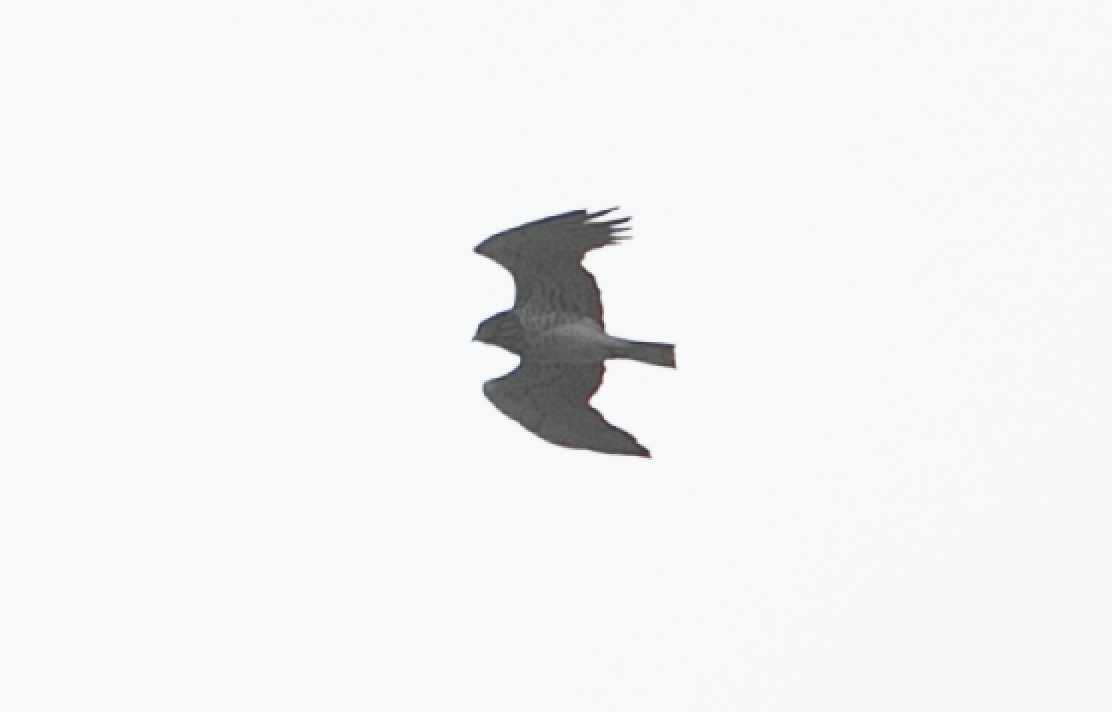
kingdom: Animalia
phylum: Chordata
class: Aves
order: Accipitriformes
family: Accipitridae
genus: Circaetus
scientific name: Circaetus gallicus
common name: Short-toed snake eagle
